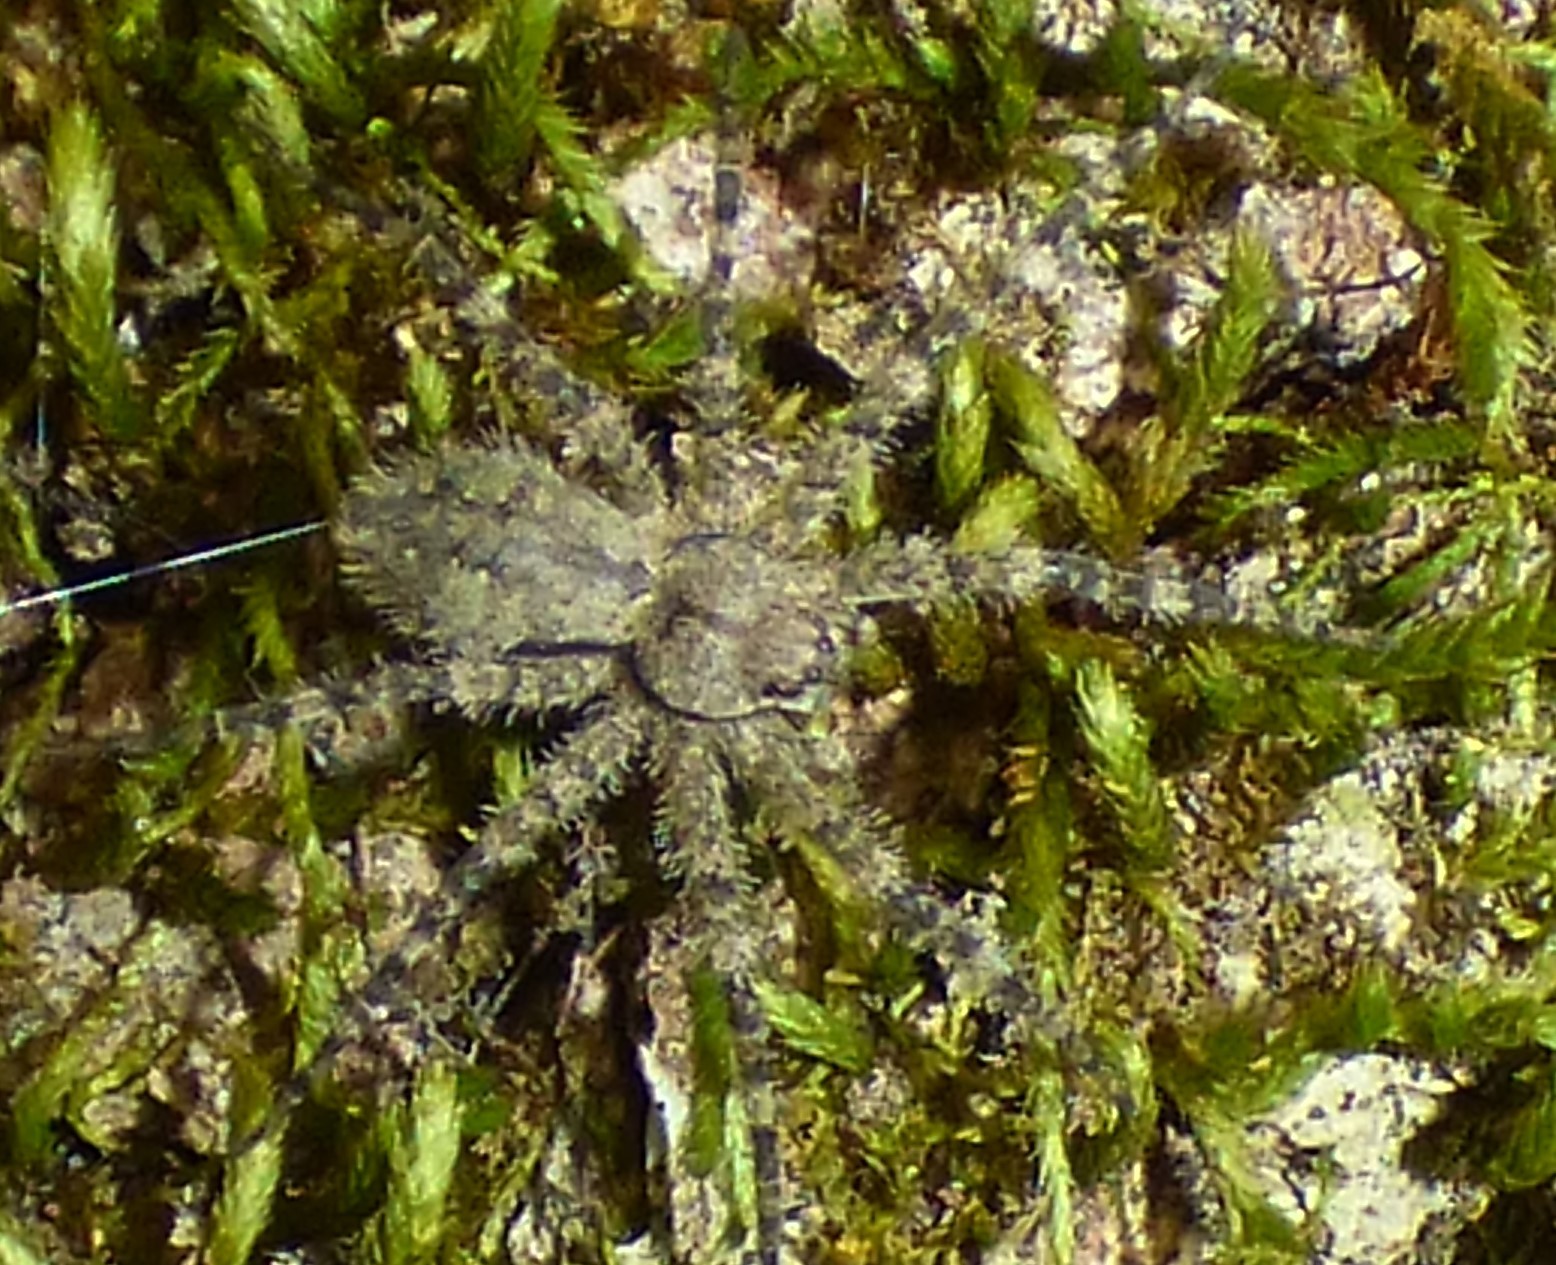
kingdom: Animalia
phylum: Arthropoda
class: Arachnida
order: Araneae
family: Pisauridae
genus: Dolomedes
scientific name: Dolomedes albineus
